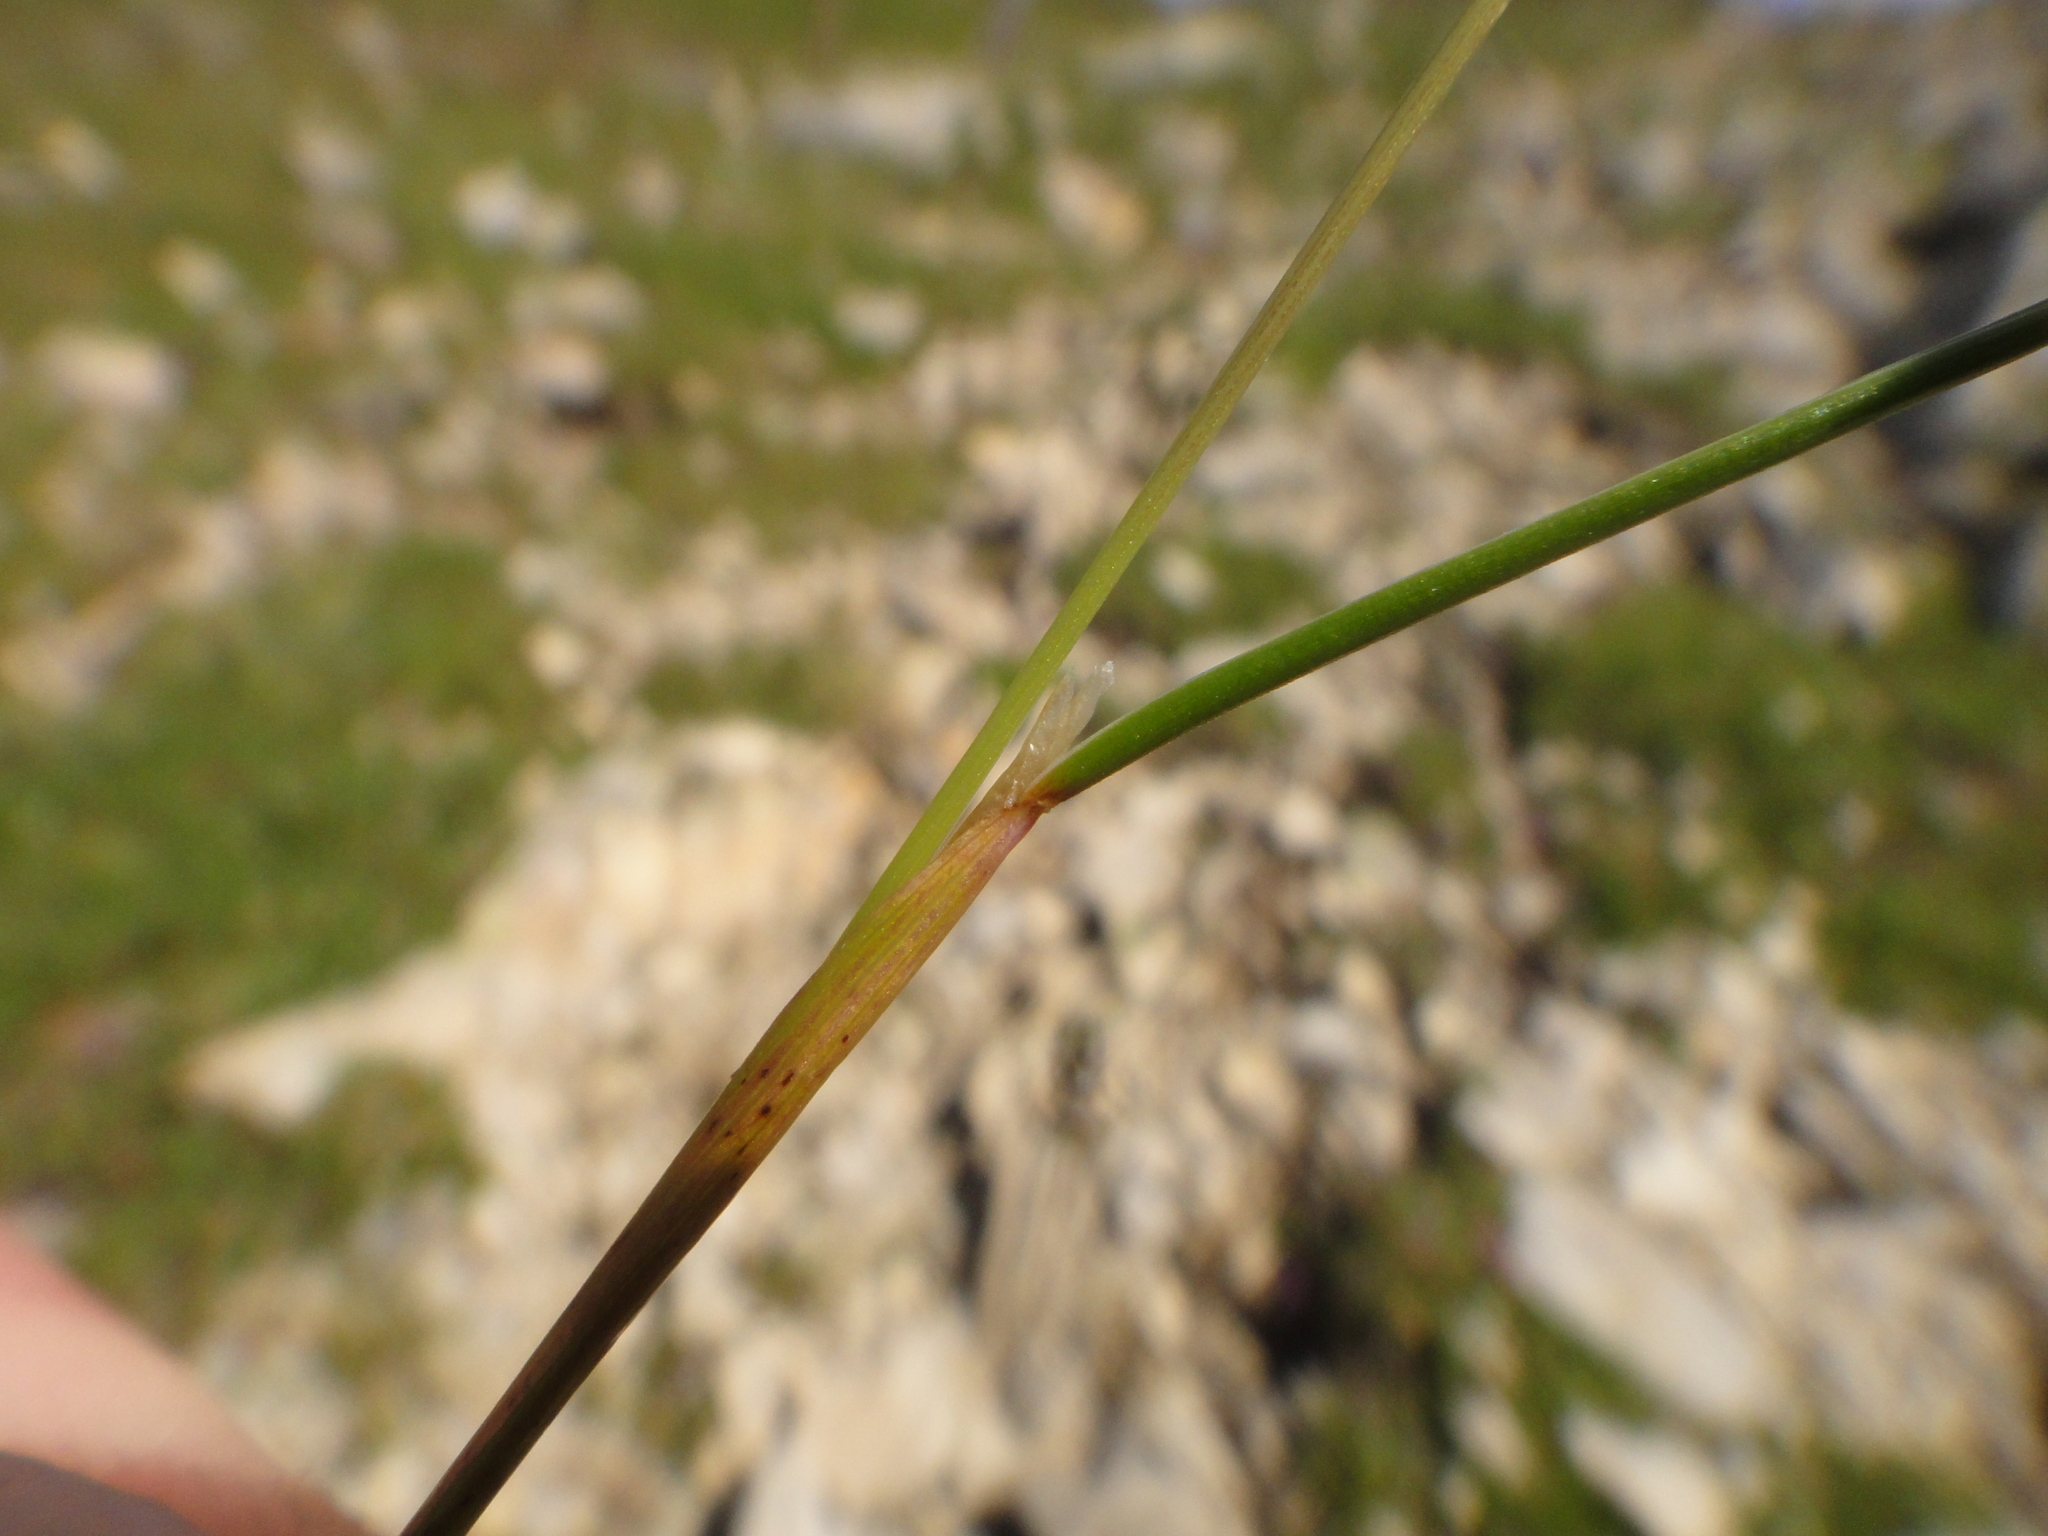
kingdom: Plantae
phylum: Tracheophyta
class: Liliopsida
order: Poales
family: Poaceae
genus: Festuca
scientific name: Festuca quadriflora
